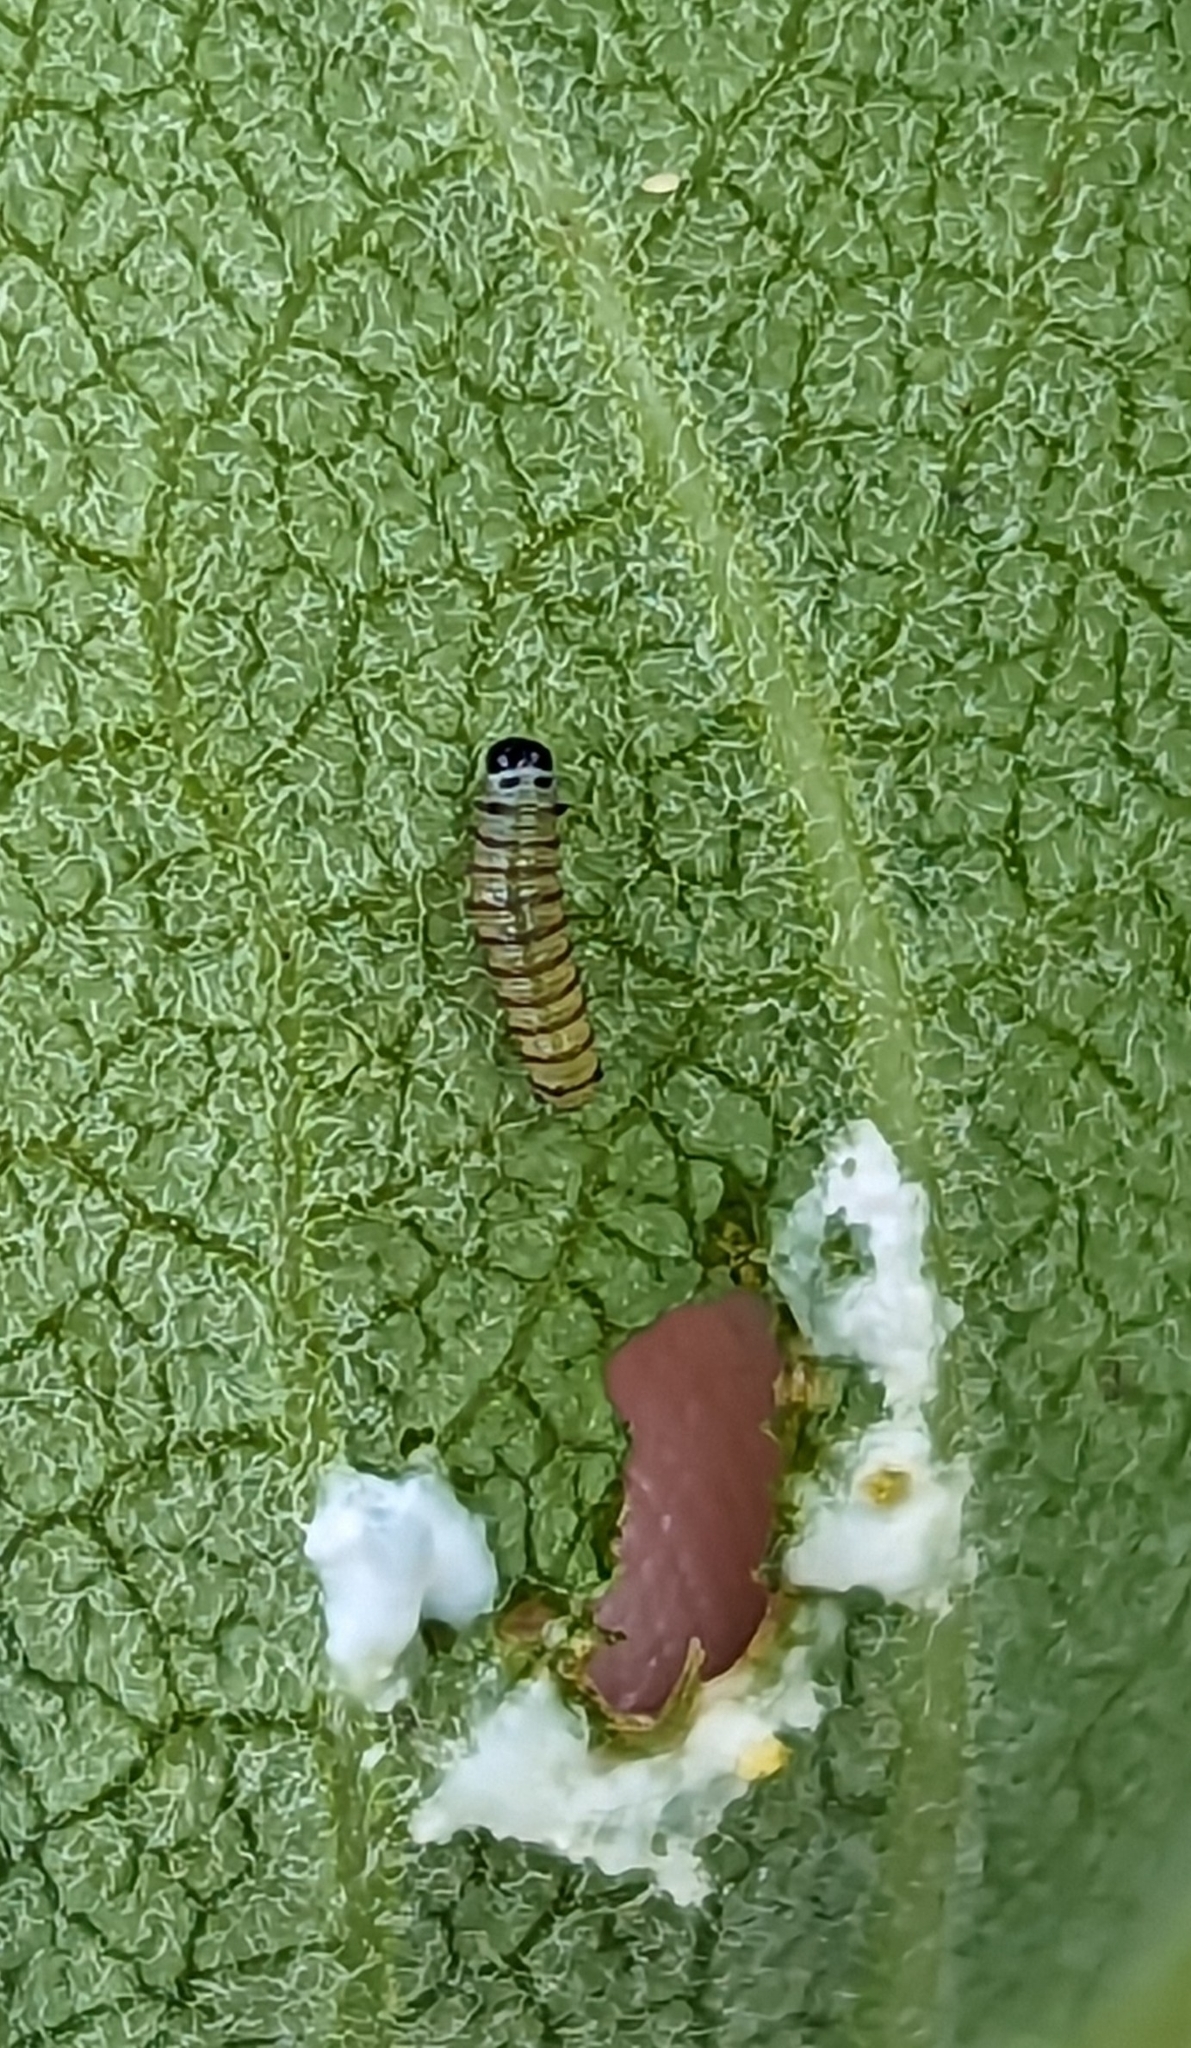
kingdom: Animalia
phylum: Arthropoda
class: Insecta
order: Lepidoptera
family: Nymphalidae
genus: Danaus
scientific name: Danaus plexippus
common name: Monarch
